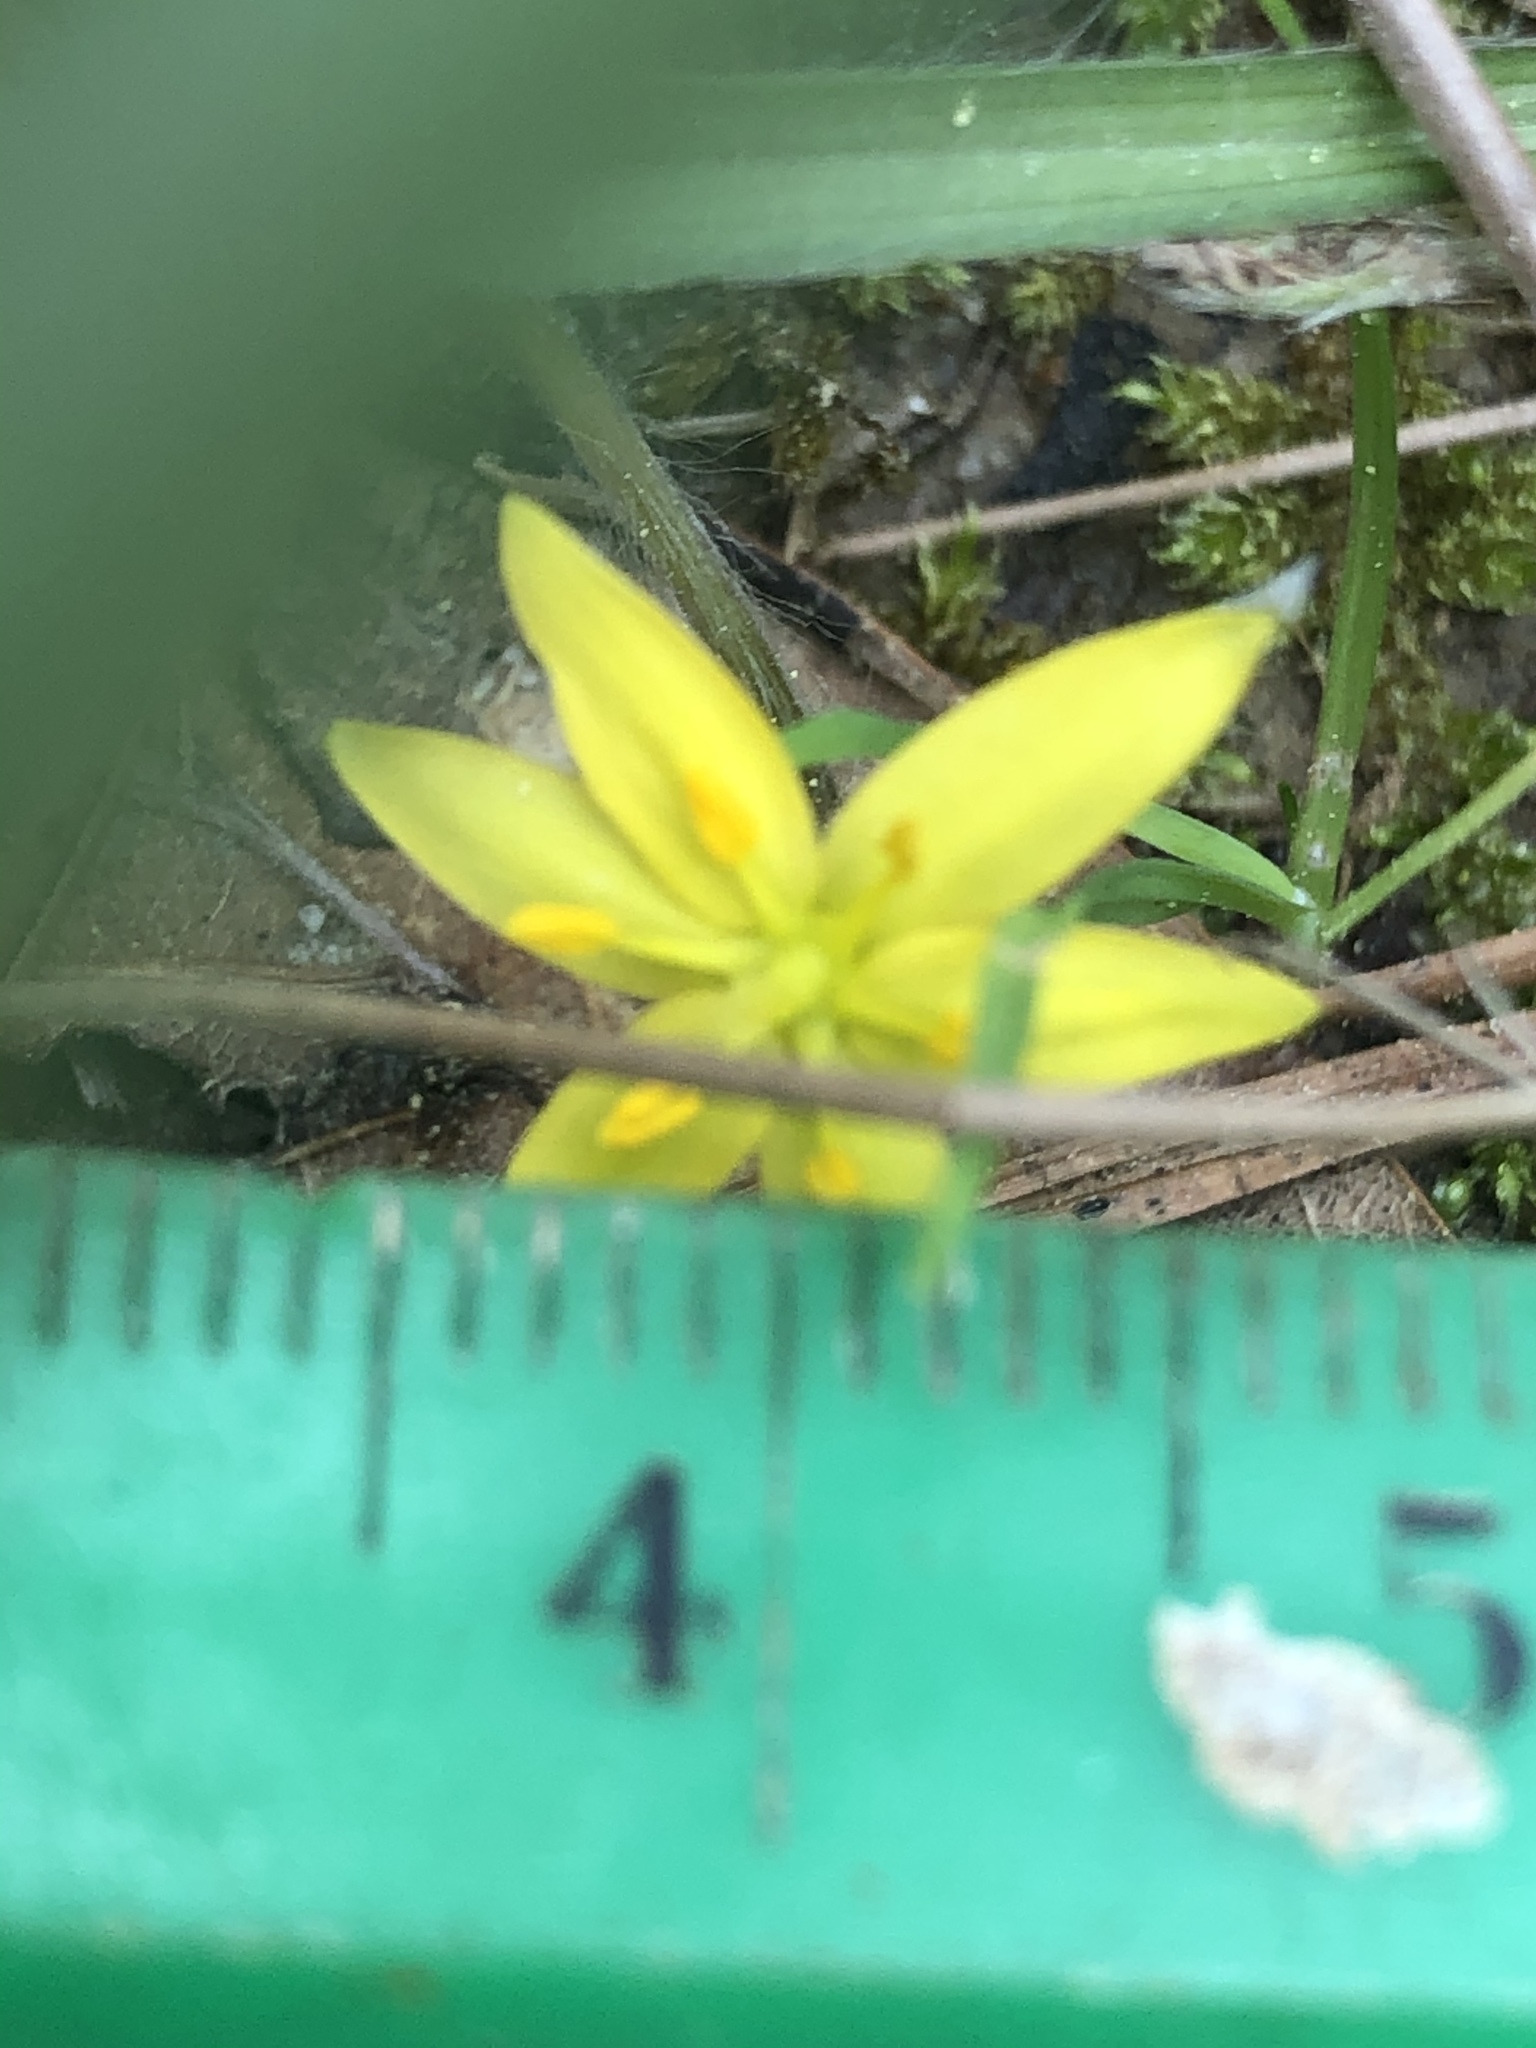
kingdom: Plantae
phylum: Tracheophyta
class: Liliopsida
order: Asparagales
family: Hypoxidaceae
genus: Hypoxis
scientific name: Hypoxis hirsuta
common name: Common goldstar
